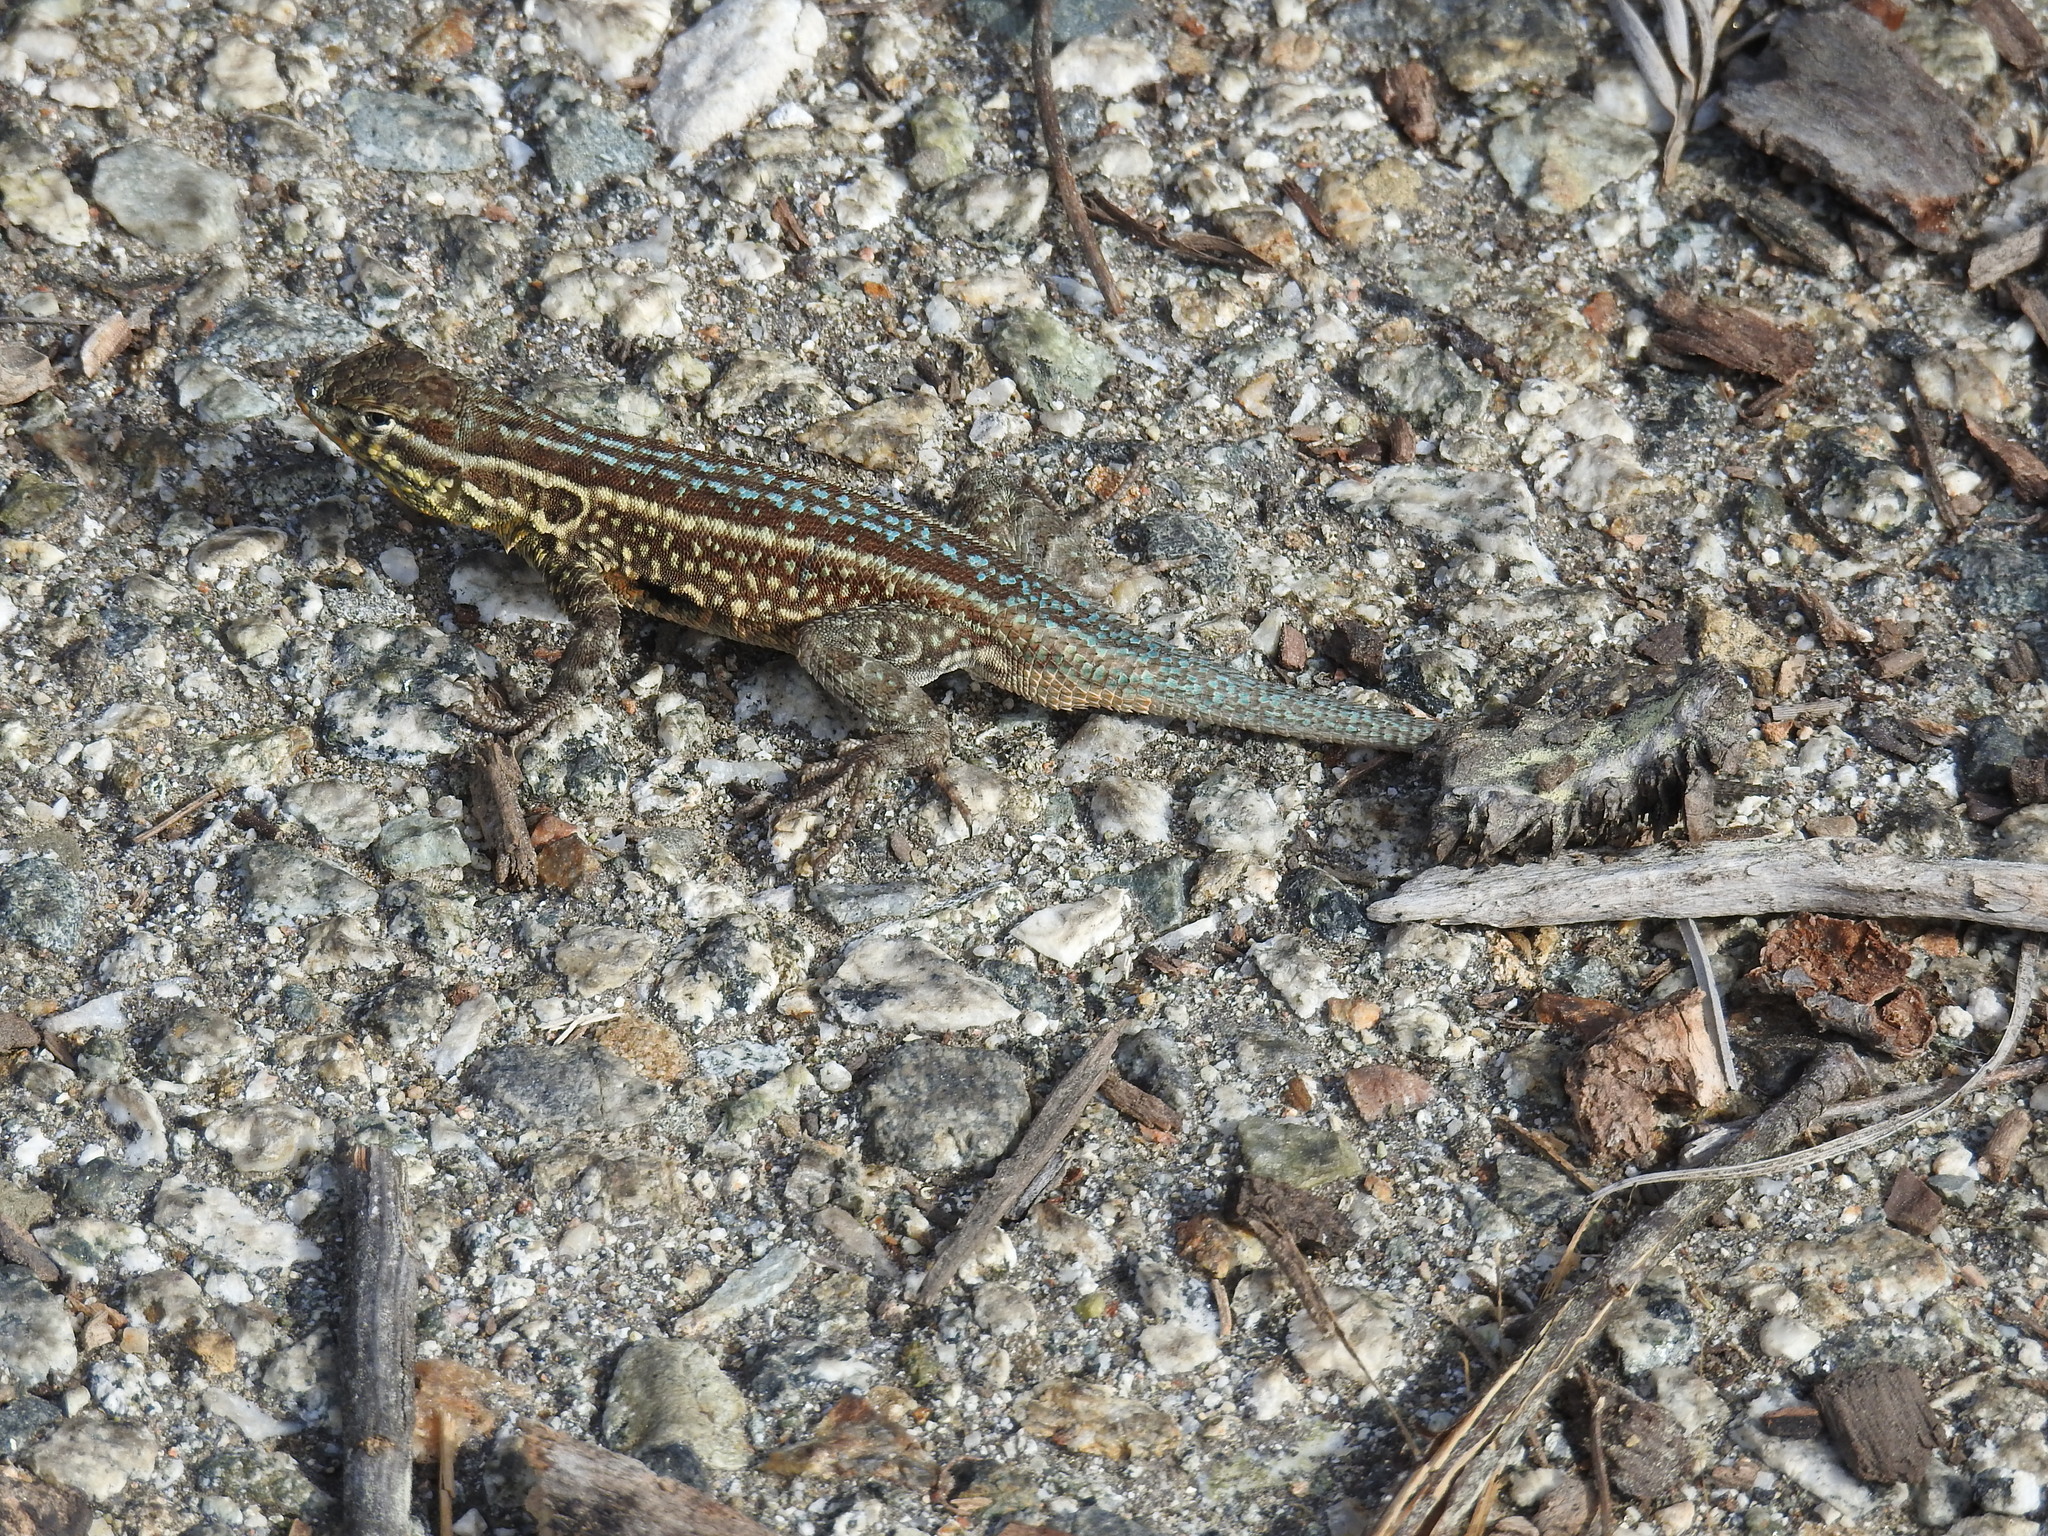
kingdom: Animalia
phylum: Chordata
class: Squamata
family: Phrynosomatidae
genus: Uta
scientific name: Uta stansburiana
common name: Side-blotched lizard
